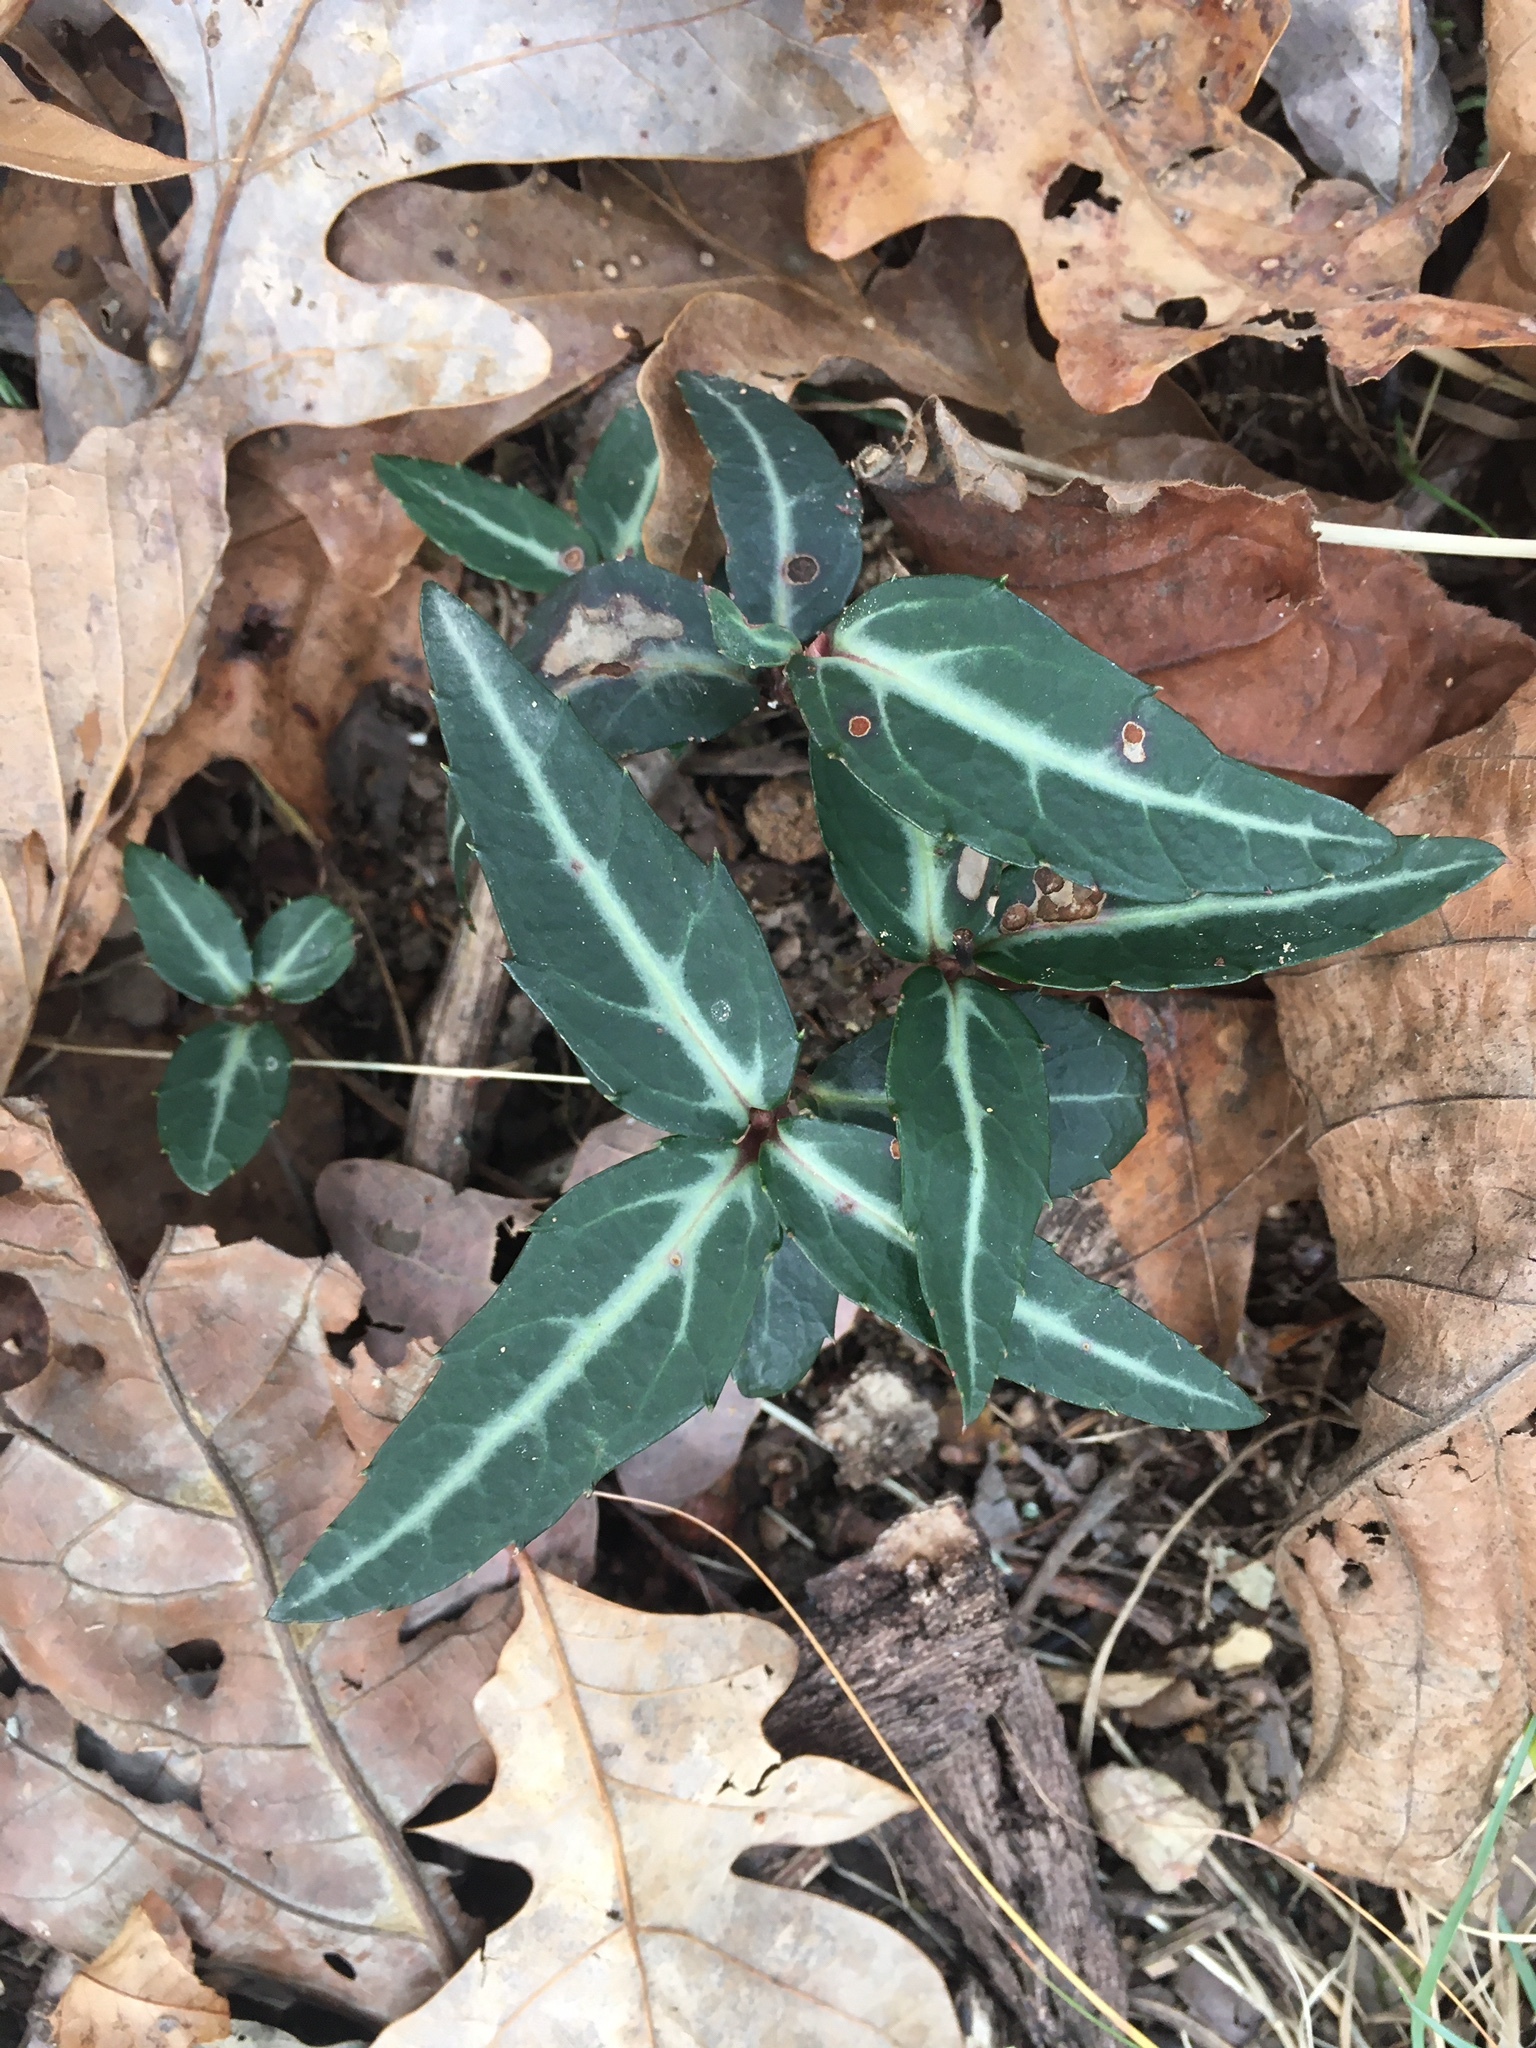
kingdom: Plantae
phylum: Tracheophyta
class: Magnoliopsida
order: Ericales
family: Ericaceae
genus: Chimaphila
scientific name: Chimaphila maculata
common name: Spotted pipsissewa
